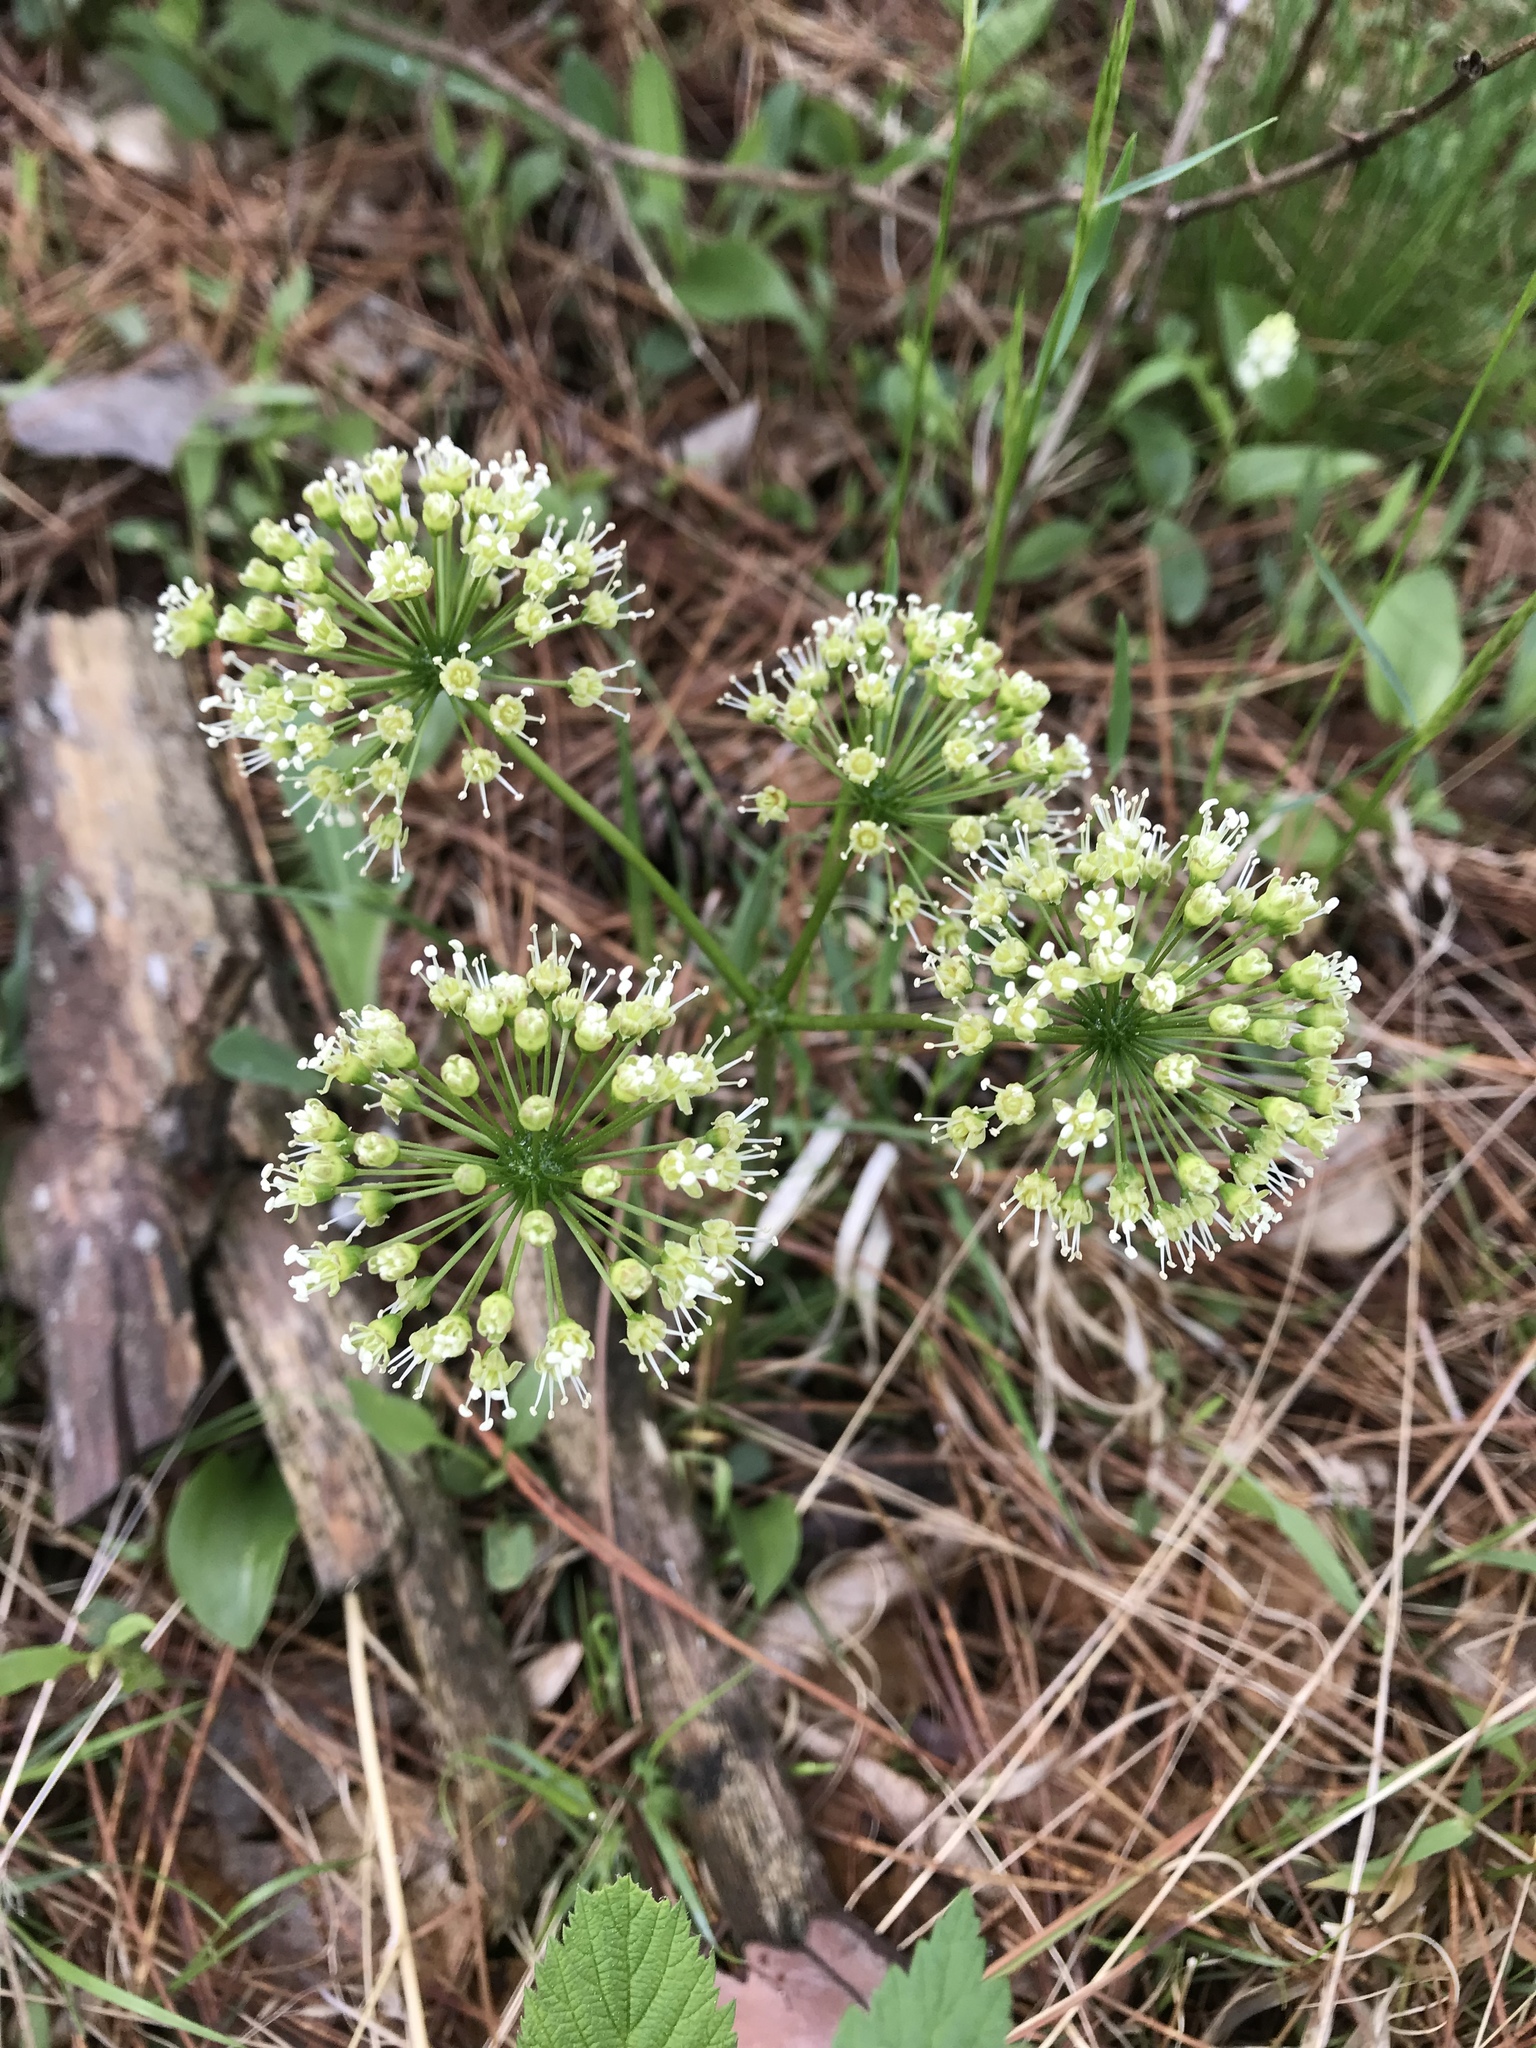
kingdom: Plantae
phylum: Tracheophyta
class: Magnoliopsida
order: Apiales
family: Araliaceae
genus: Aralia
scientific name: Aralia nudicaulis
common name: Wild sarsaparilla
